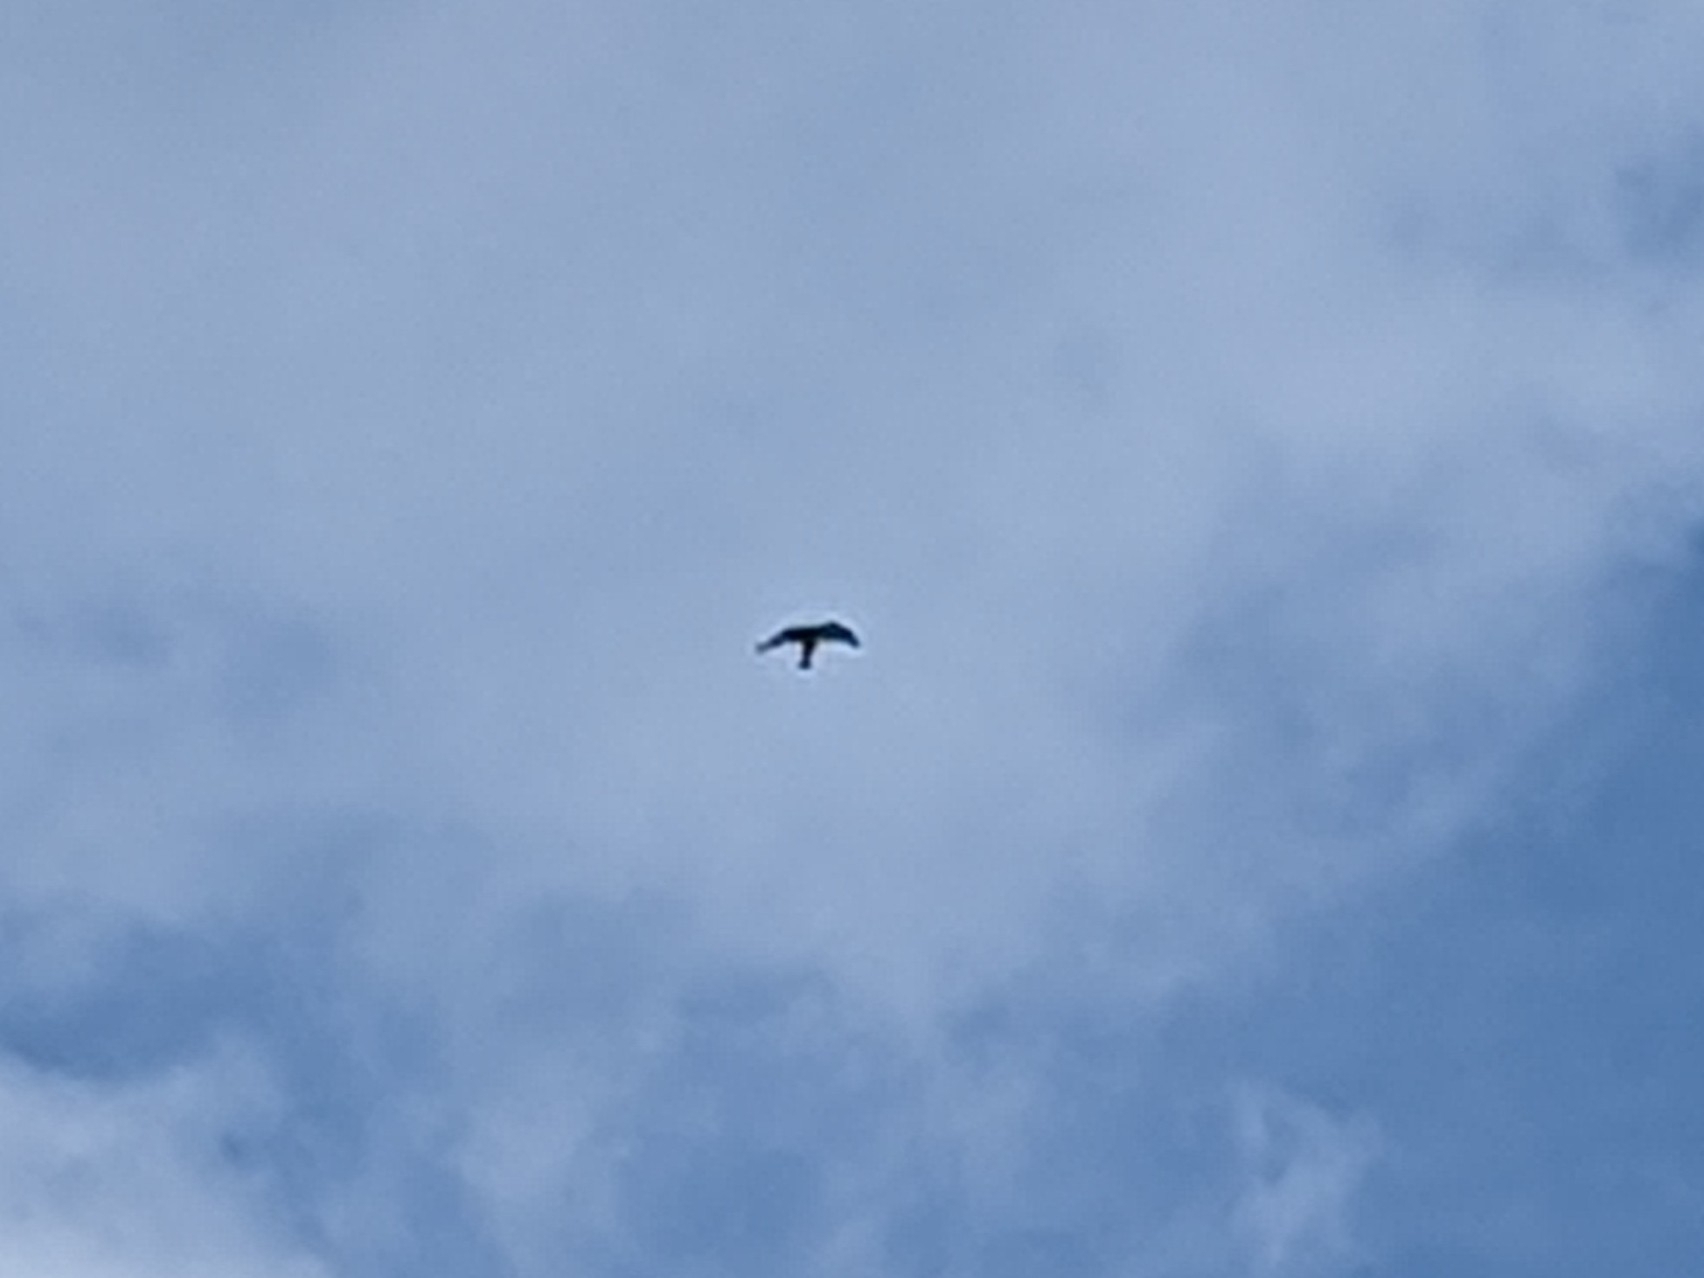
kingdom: Animalia
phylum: Chordata
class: Aves
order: Falconiformes
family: Falconidae
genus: Falco
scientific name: Falco tinnunculus
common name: Common kestrel
